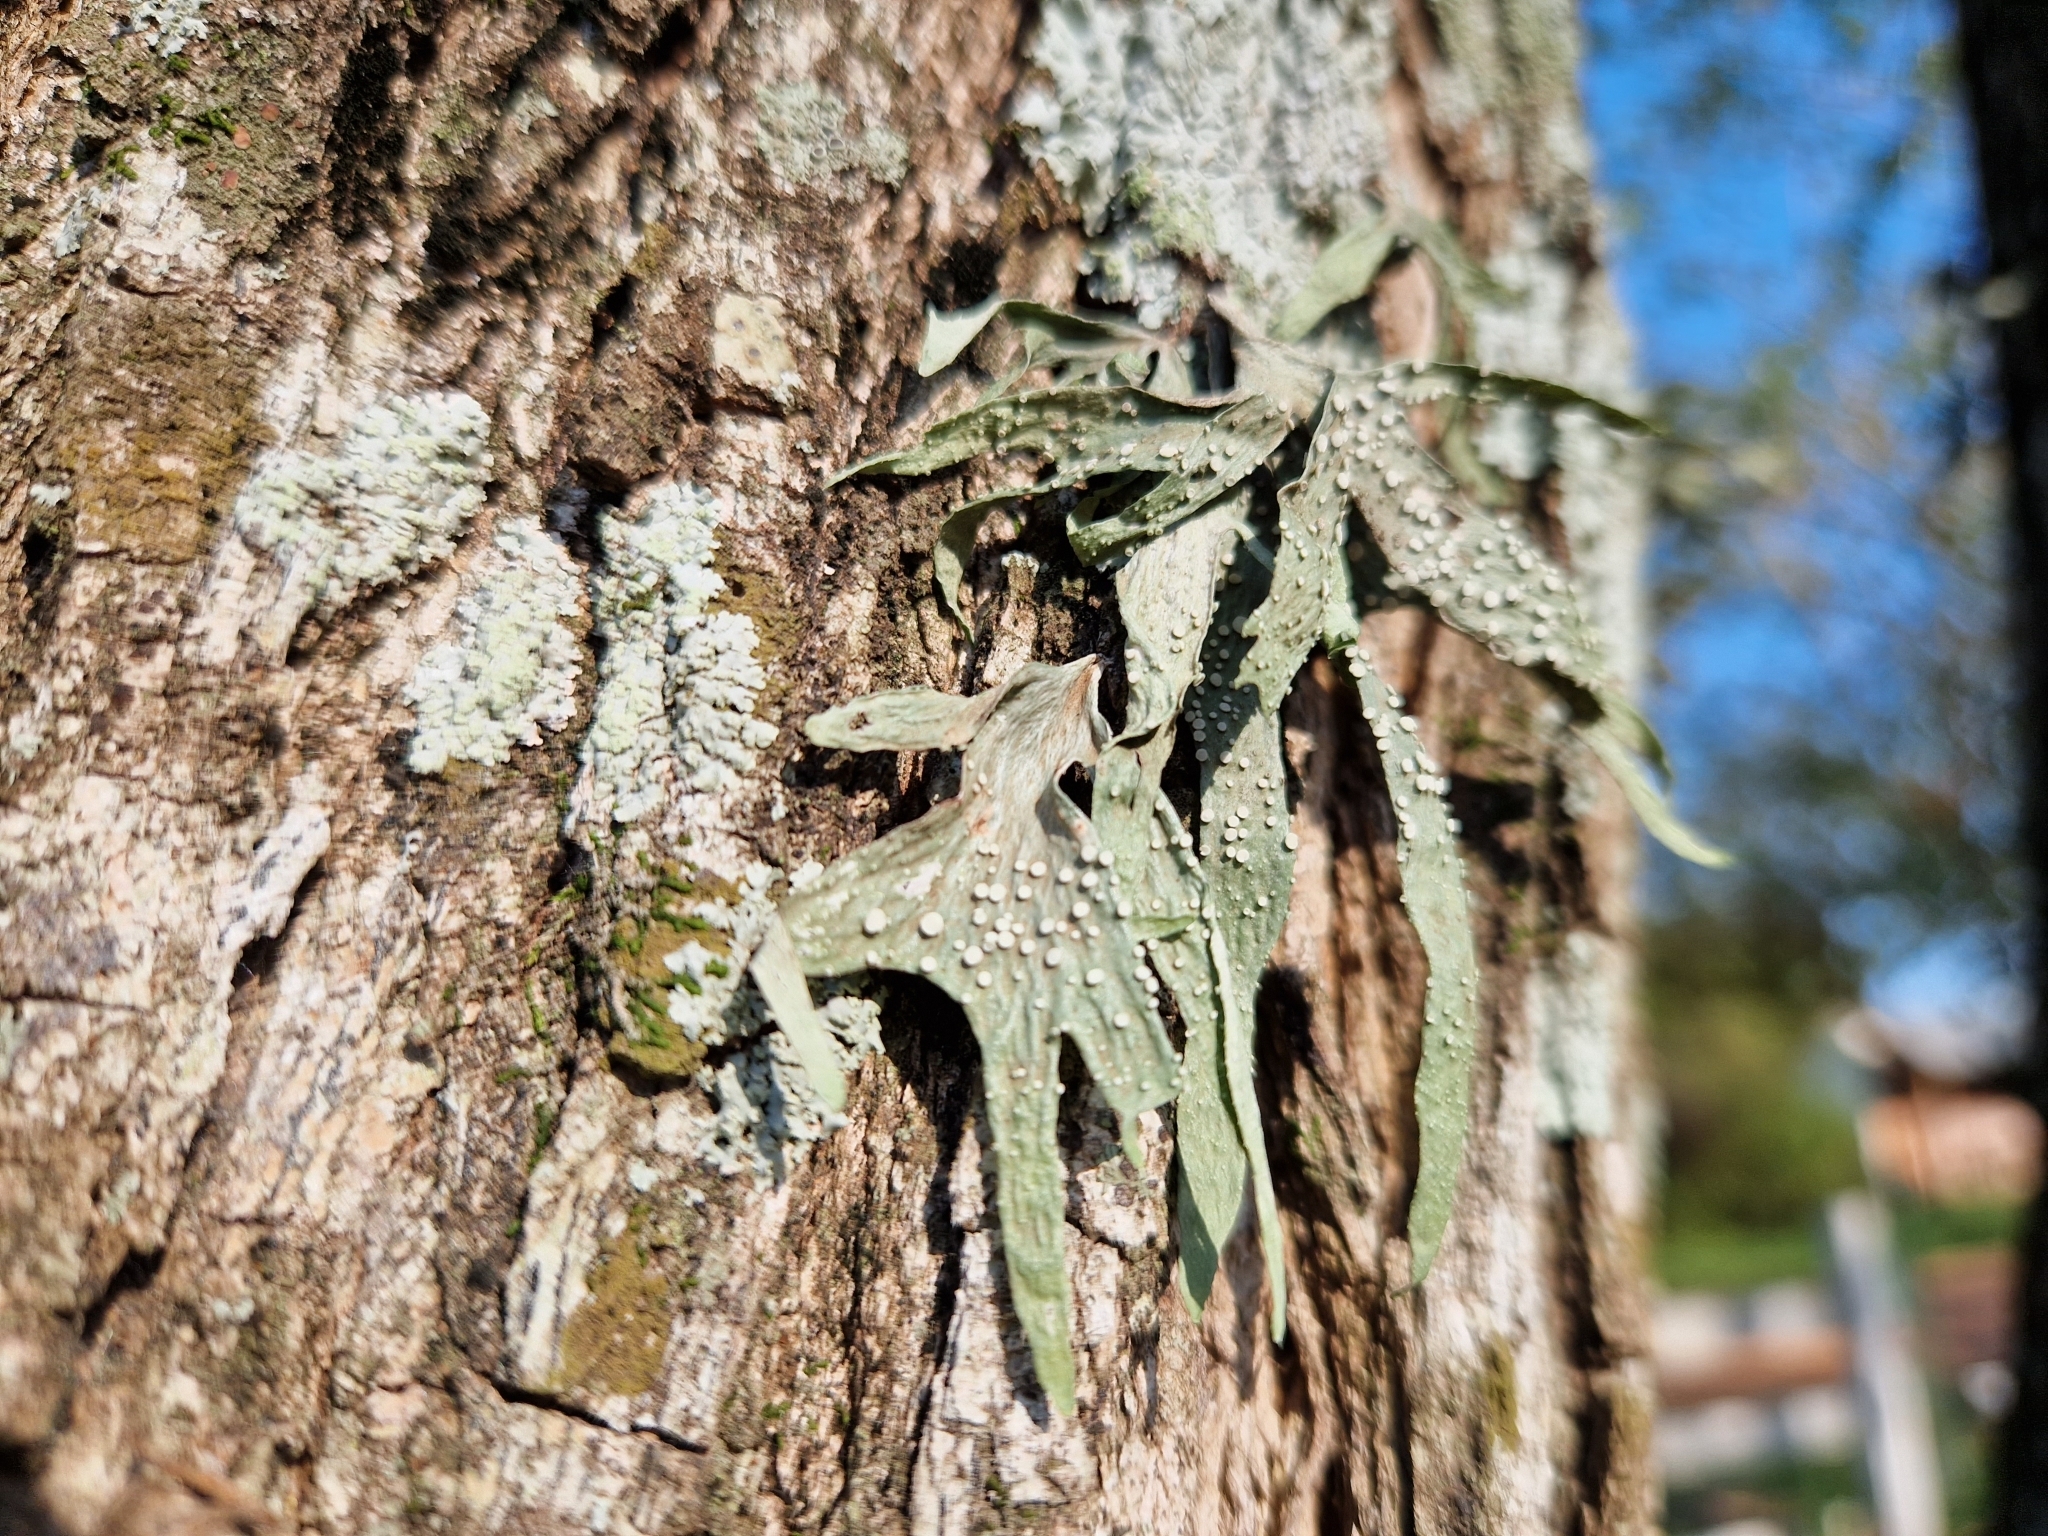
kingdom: Fungi
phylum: Ascomycota
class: Lecanoromycetes
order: Lecanorales
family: Ramalinaceae
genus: Ramalina
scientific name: Ramalina celastri
